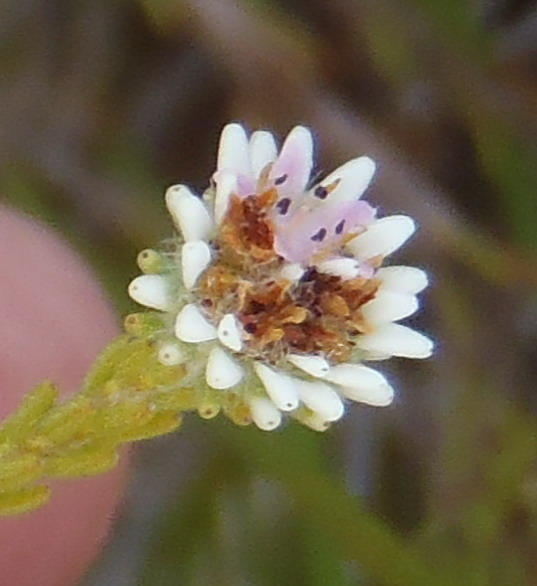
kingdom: Plantae
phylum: Tracheophyta
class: Magnoliopsida
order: Bruniales
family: Bruniaceae
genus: Staavia
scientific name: Staavia radiata
